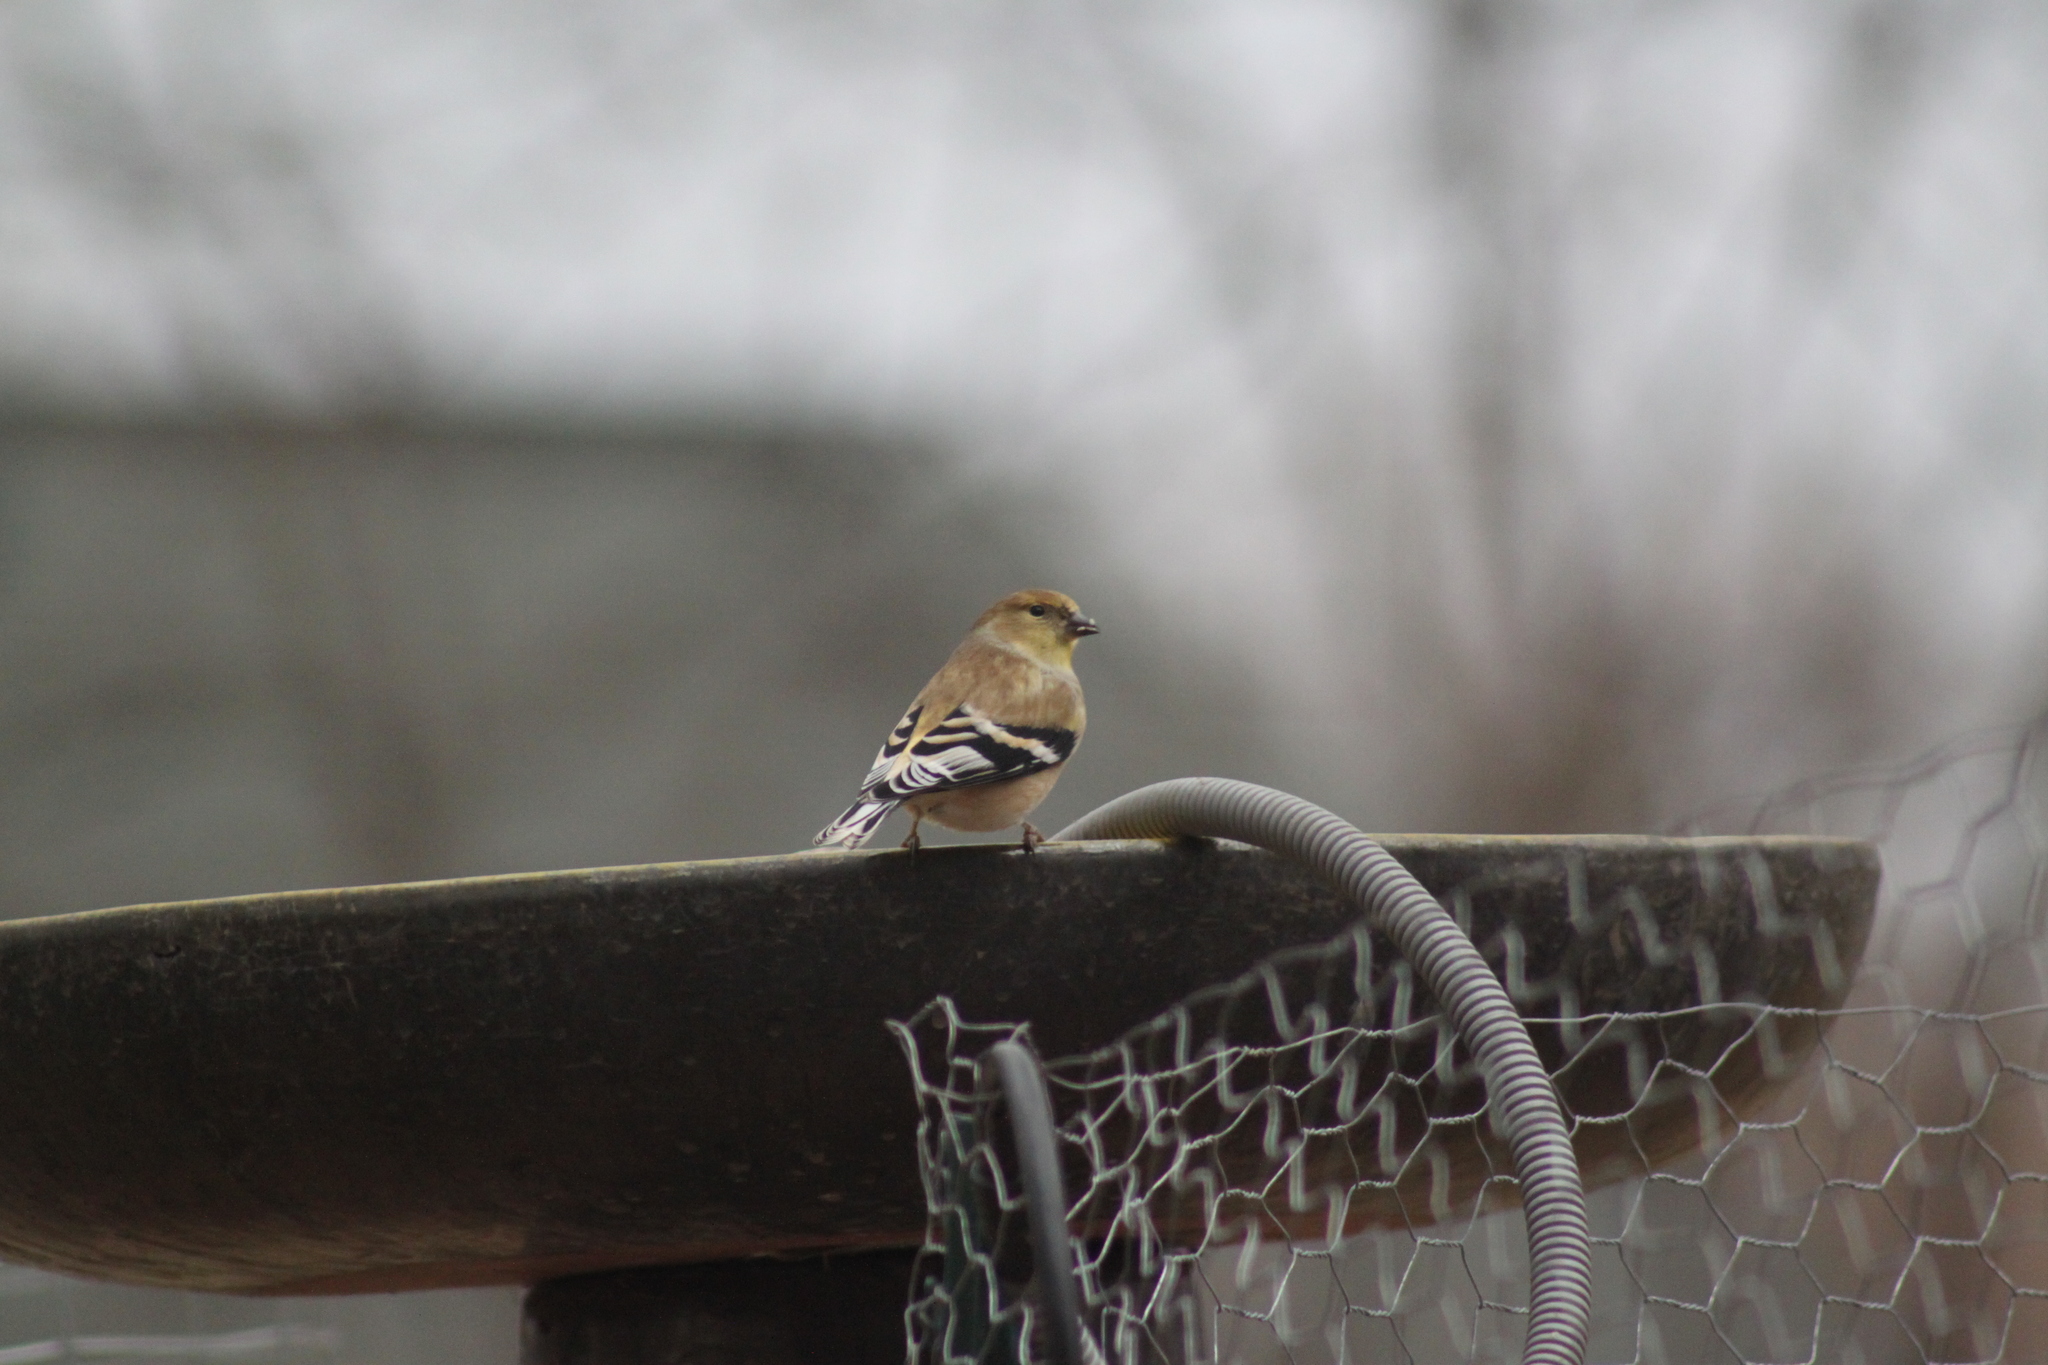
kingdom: Animalia
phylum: Chordata
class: Aves
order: Passeriformes
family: Fringillidae
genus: Spinus
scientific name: Spinus tristis
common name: American goldfinch
